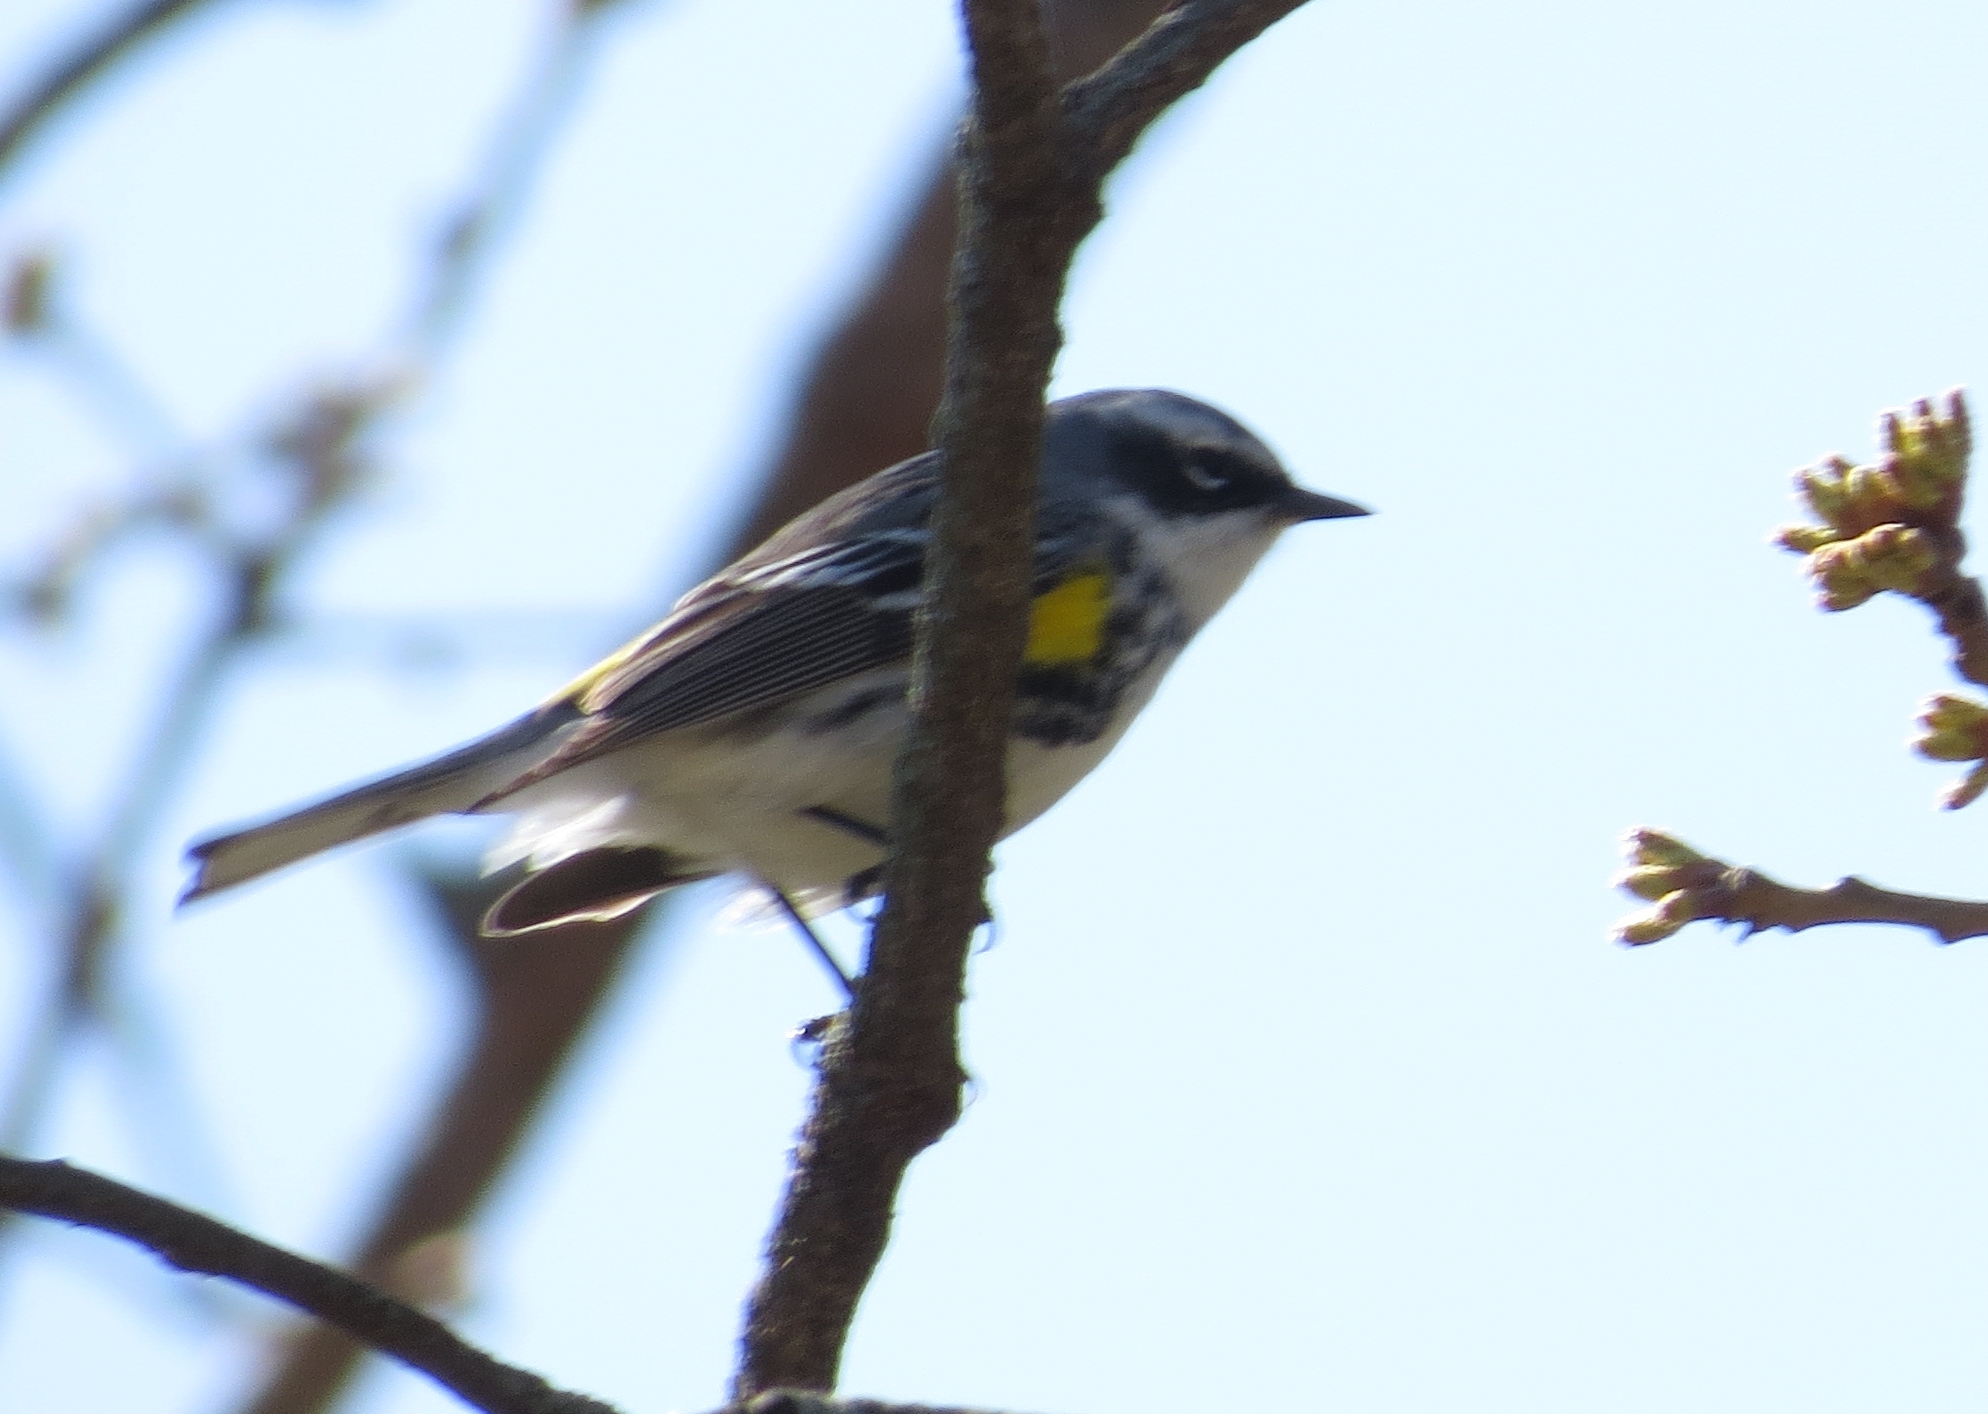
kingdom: Animalia
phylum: Chordata
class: Aves
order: Passeriformes
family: Parulidae
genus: Setophaga
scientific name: Setophaga coronata
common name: Myrtle warbler
